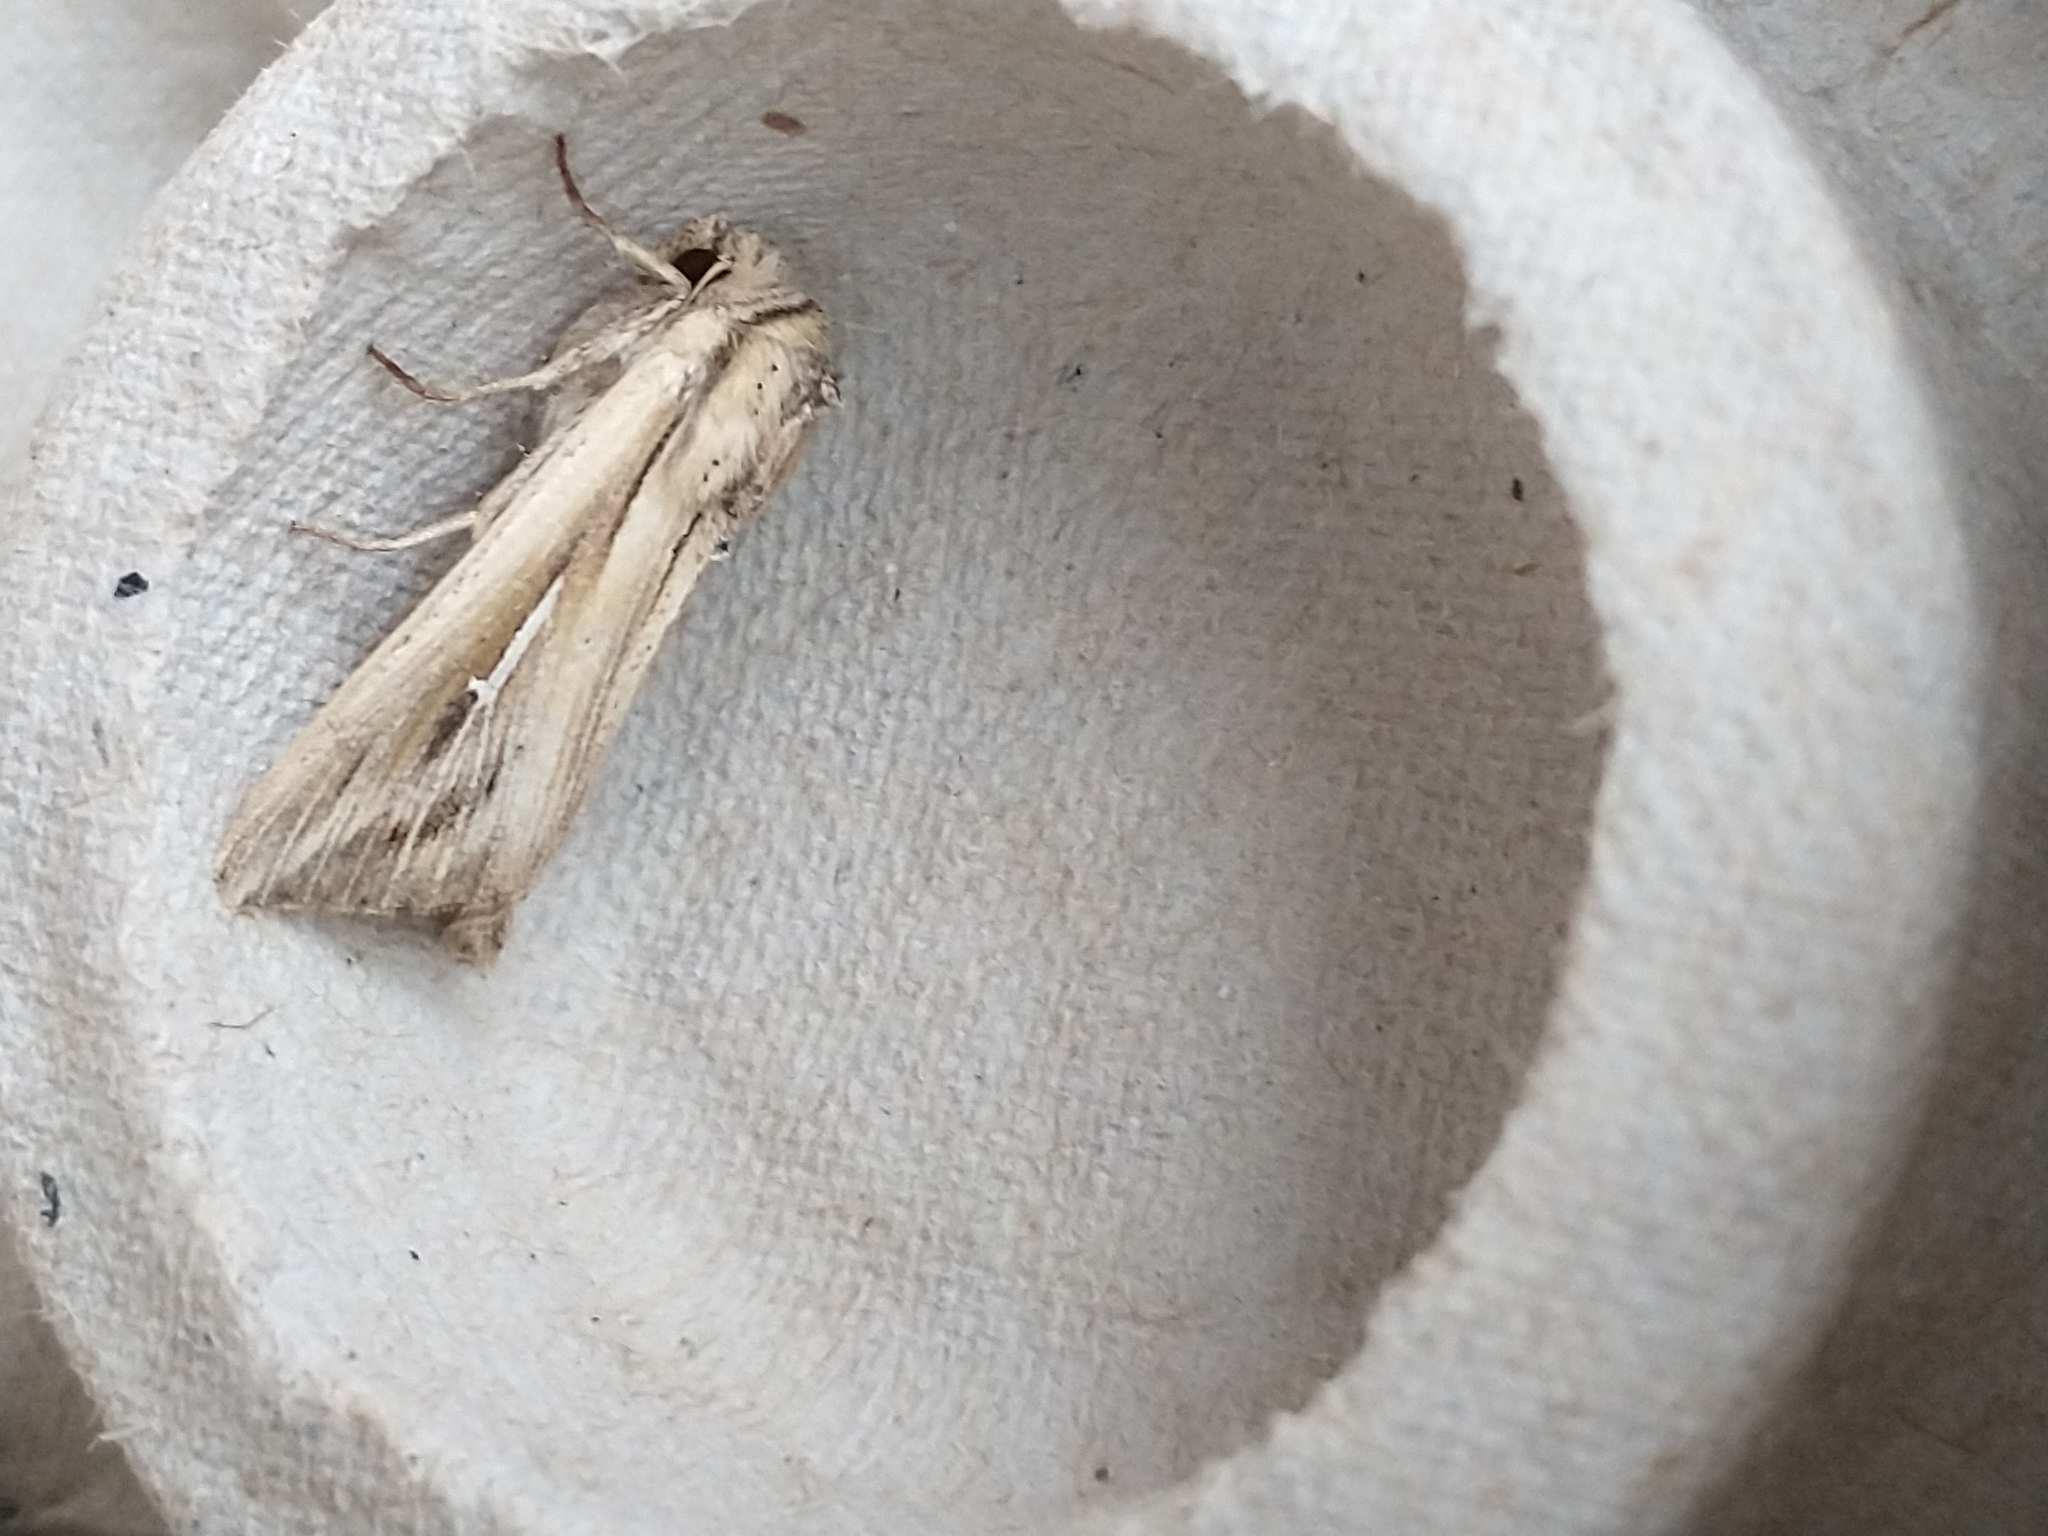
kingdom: Animalia
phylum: Arthropoda
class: Insecta
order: Lepidoptera
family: Noctuidae
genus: Mythimna
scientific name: Mythimna l-album
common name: L-album wainscot
